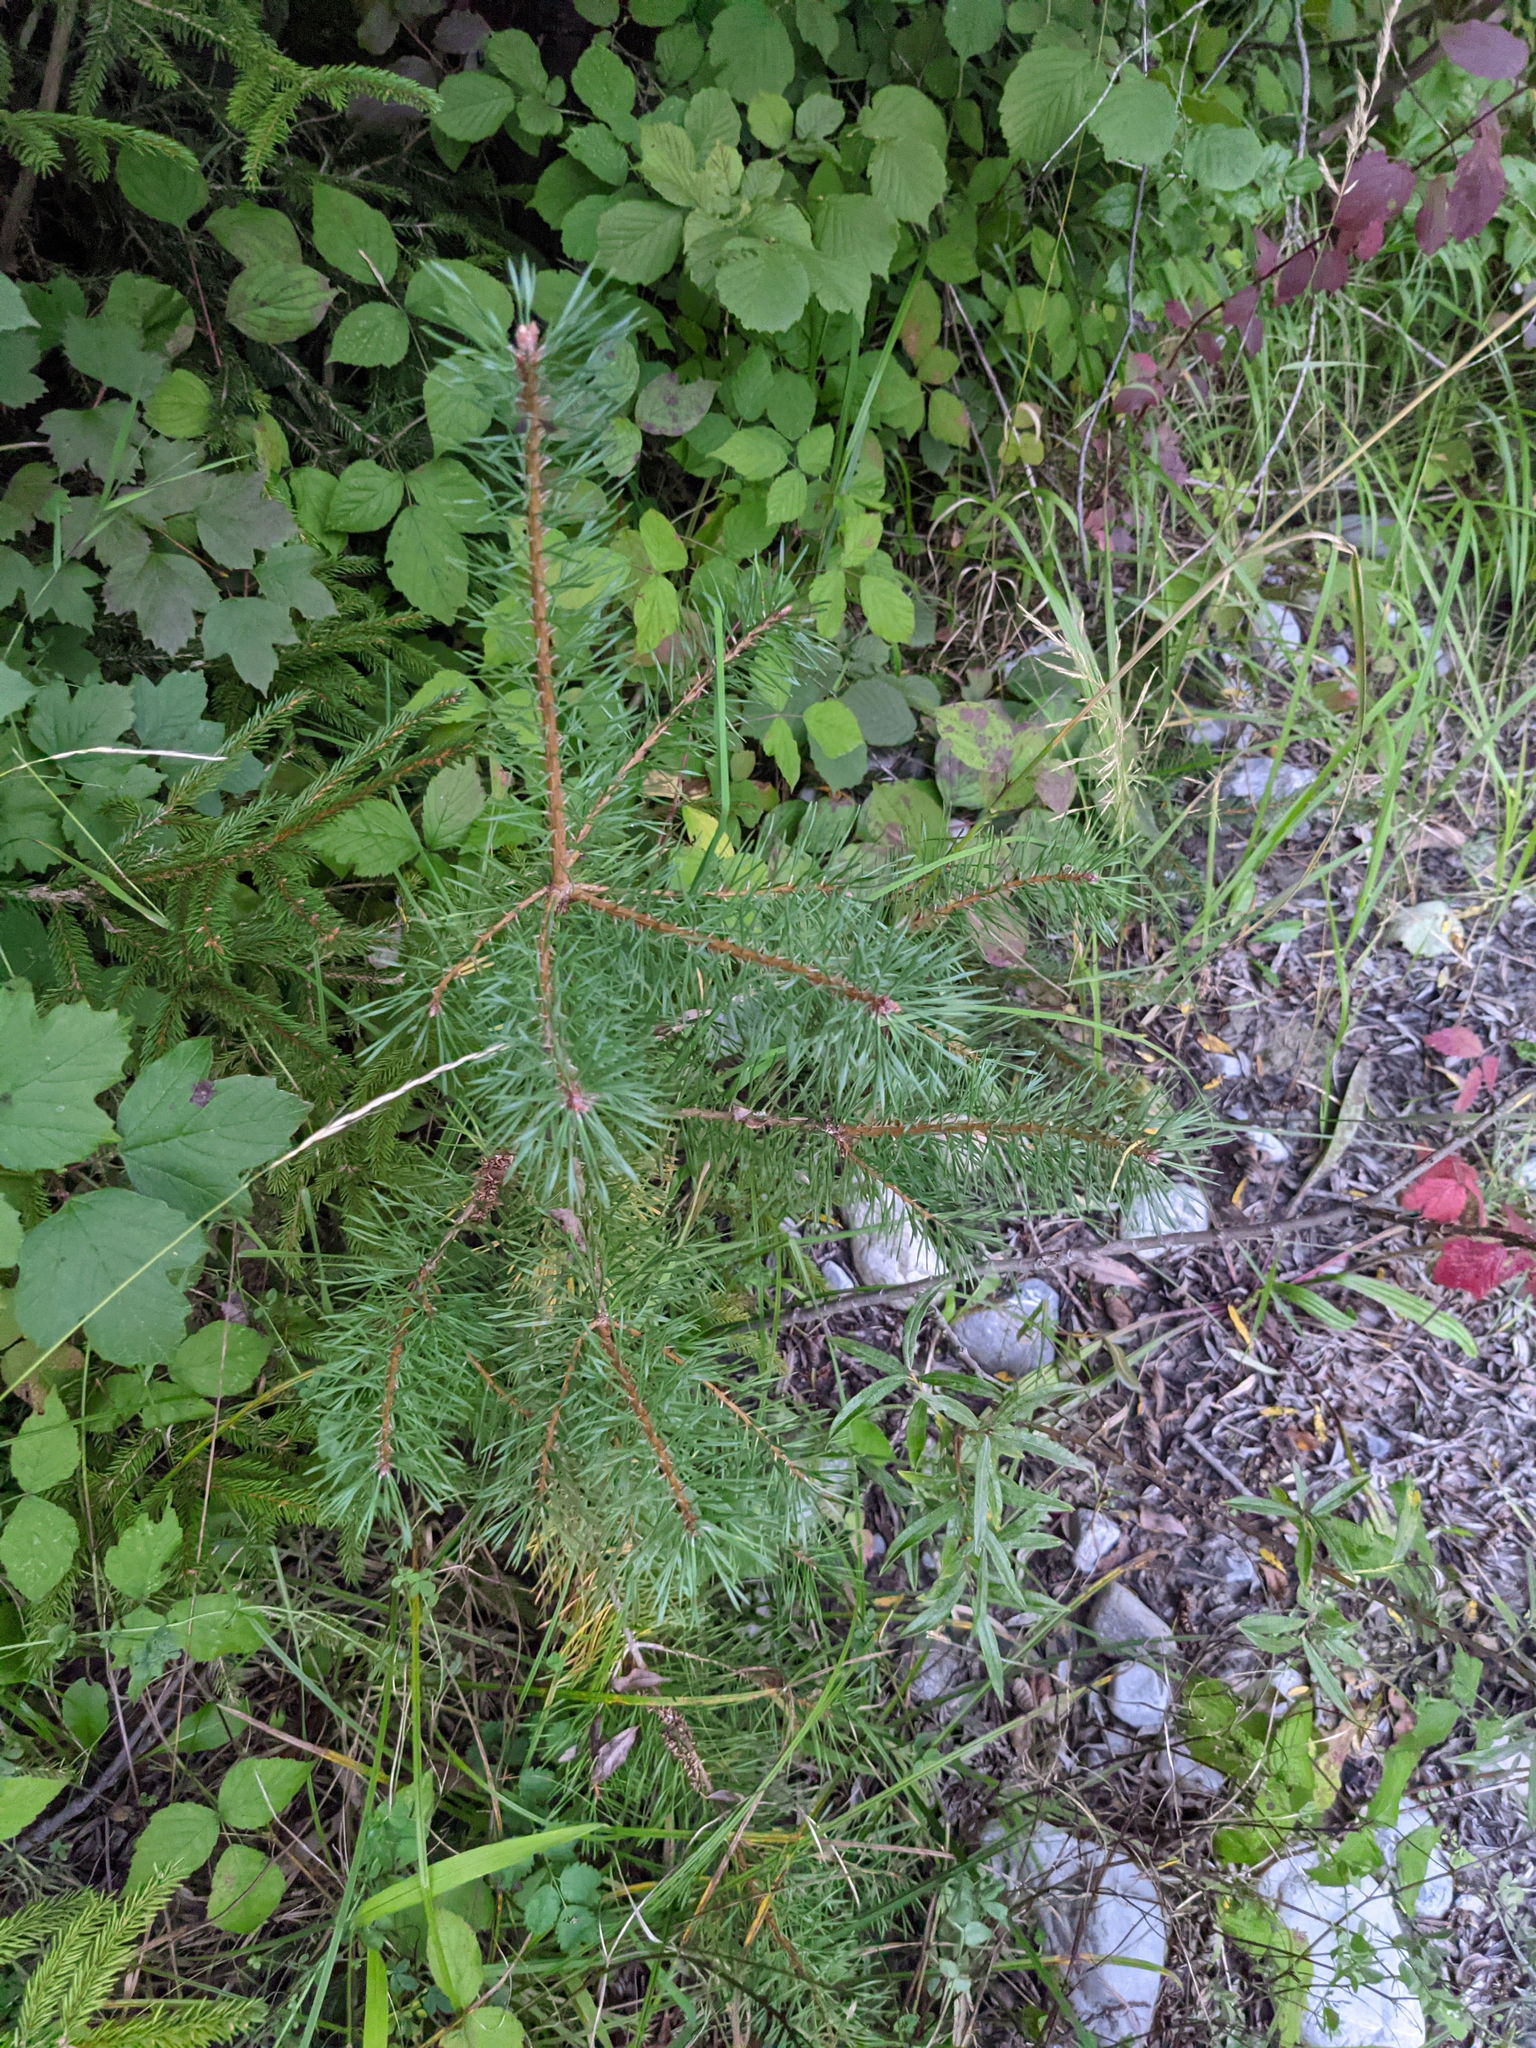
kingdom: Plantae
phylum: Tracheophyta
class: Pinopsida
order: Pinales
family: Pinaceae
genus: Pinus
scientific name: Pinus sylvestris
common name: Scots pine
